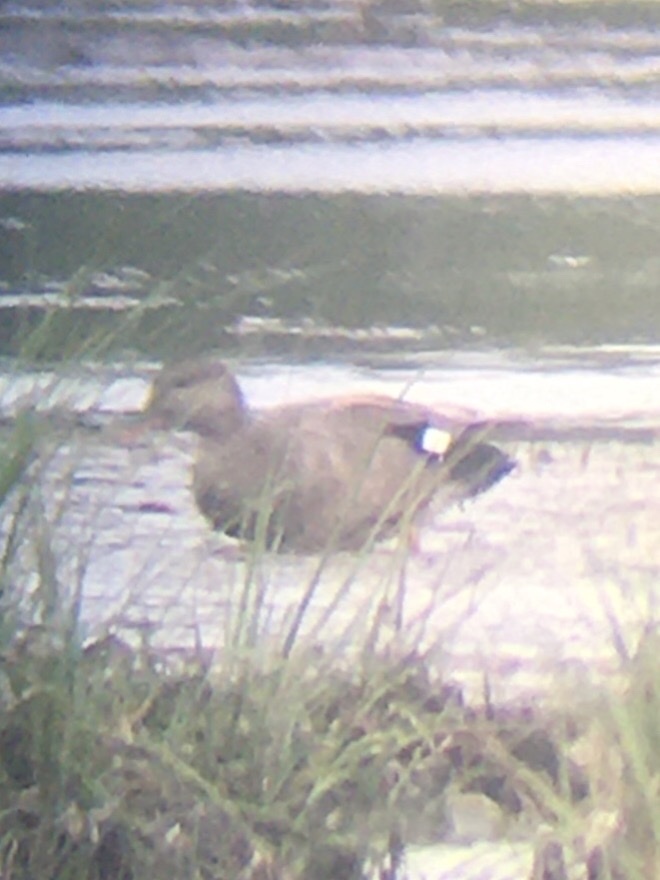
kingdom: Animalia
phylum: Chordata
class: Aves
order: Anseriformes
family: Anatidae
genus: Mareca
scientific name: Mareca strepera
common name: Gadwall
